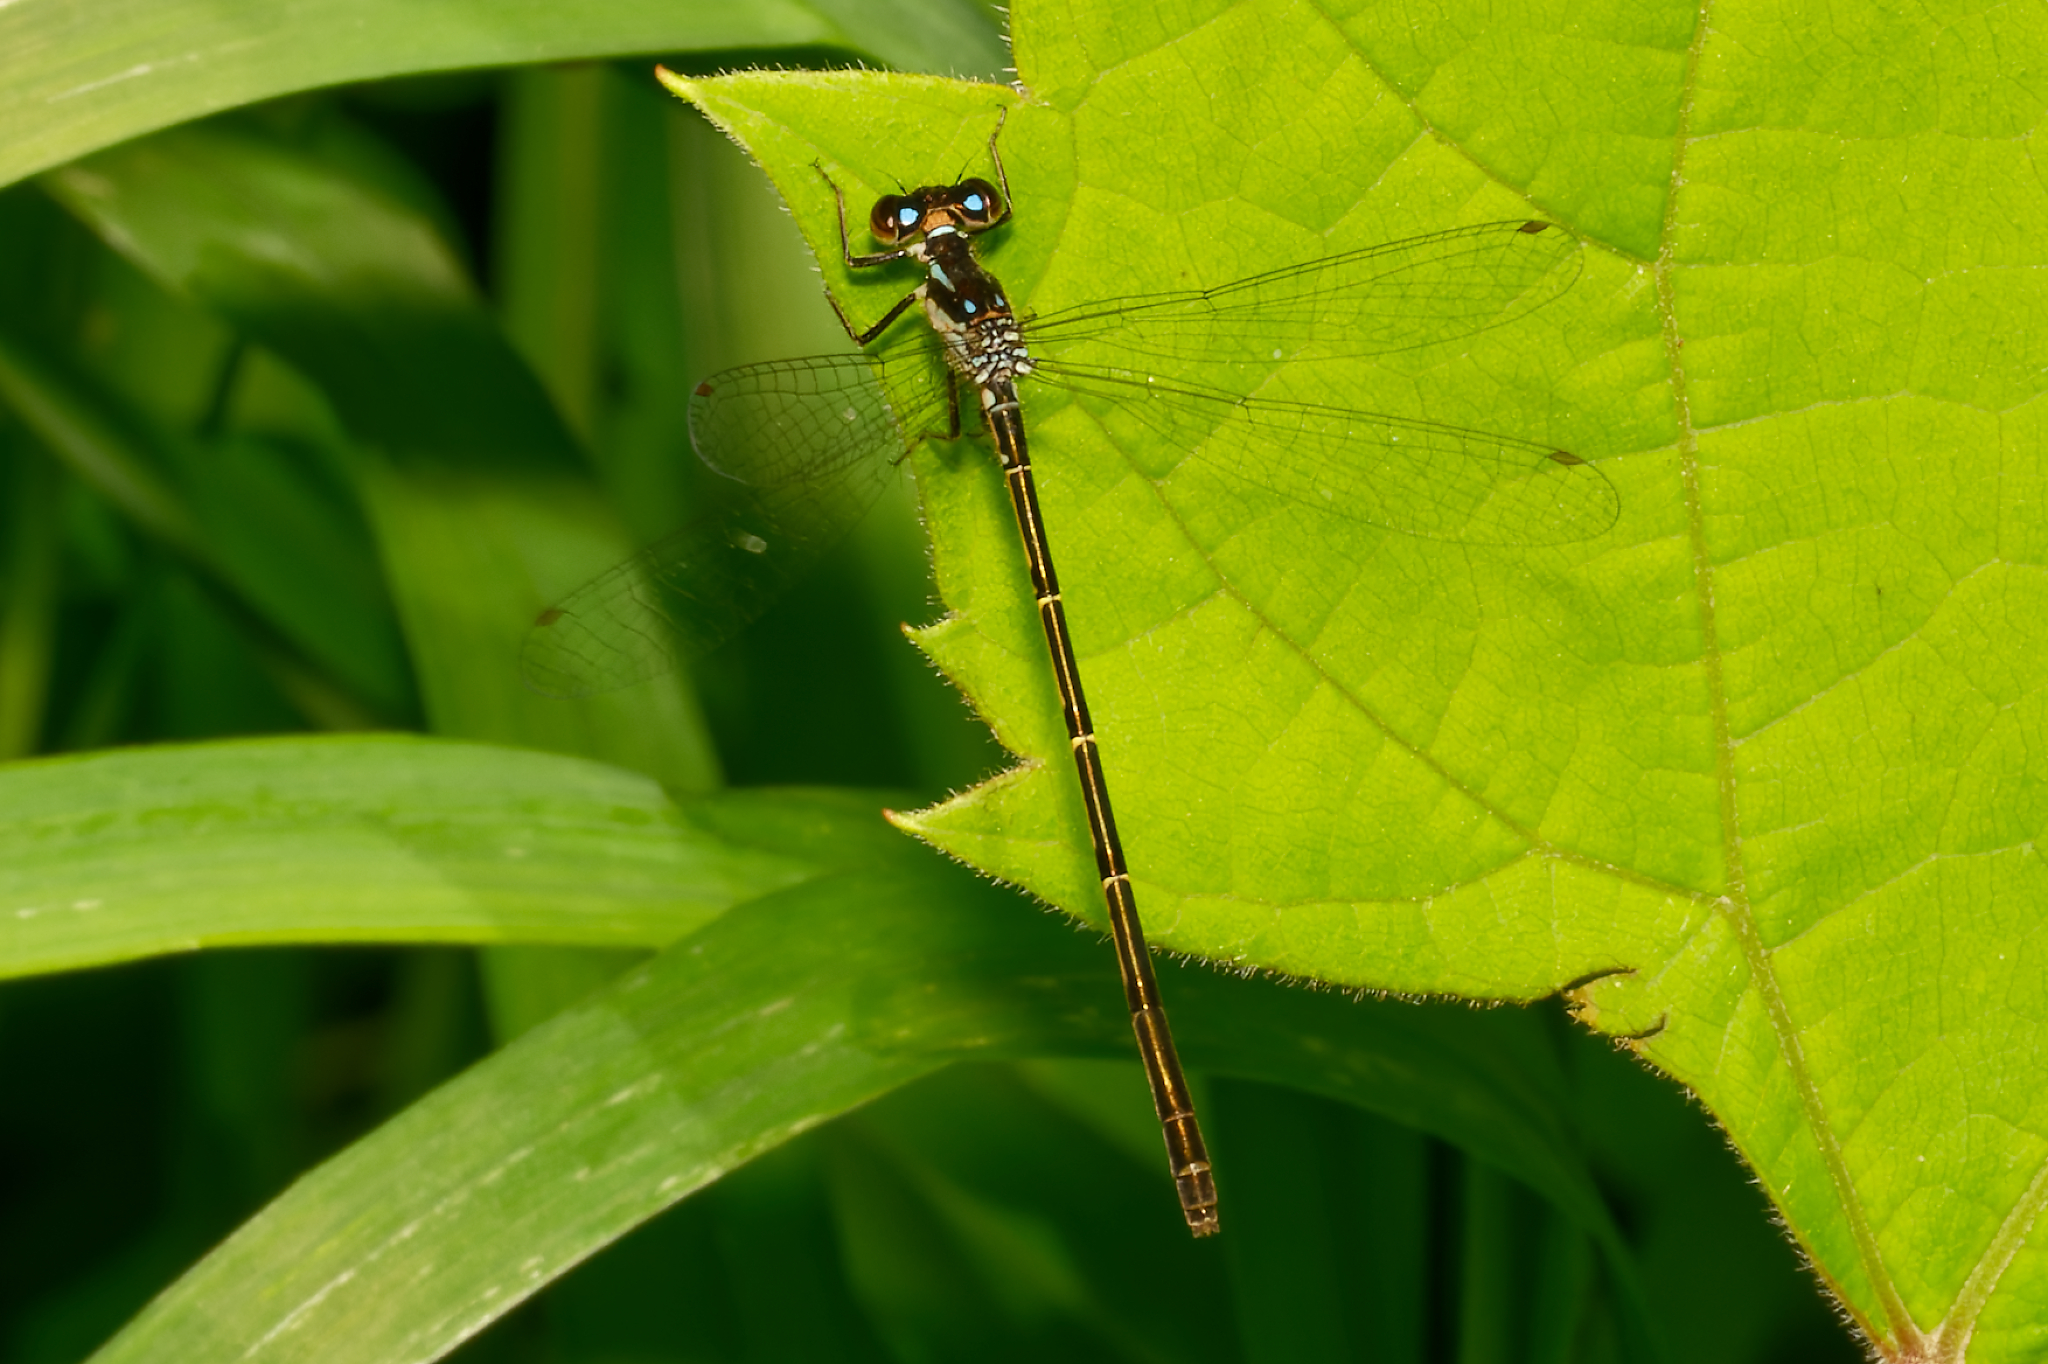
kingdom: Animalia
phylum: Arthropoda
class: Insecta
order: Odonata
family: Coenagrionidae
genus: Ischnura
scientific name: Ischnura posita
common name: Fragile forktail
